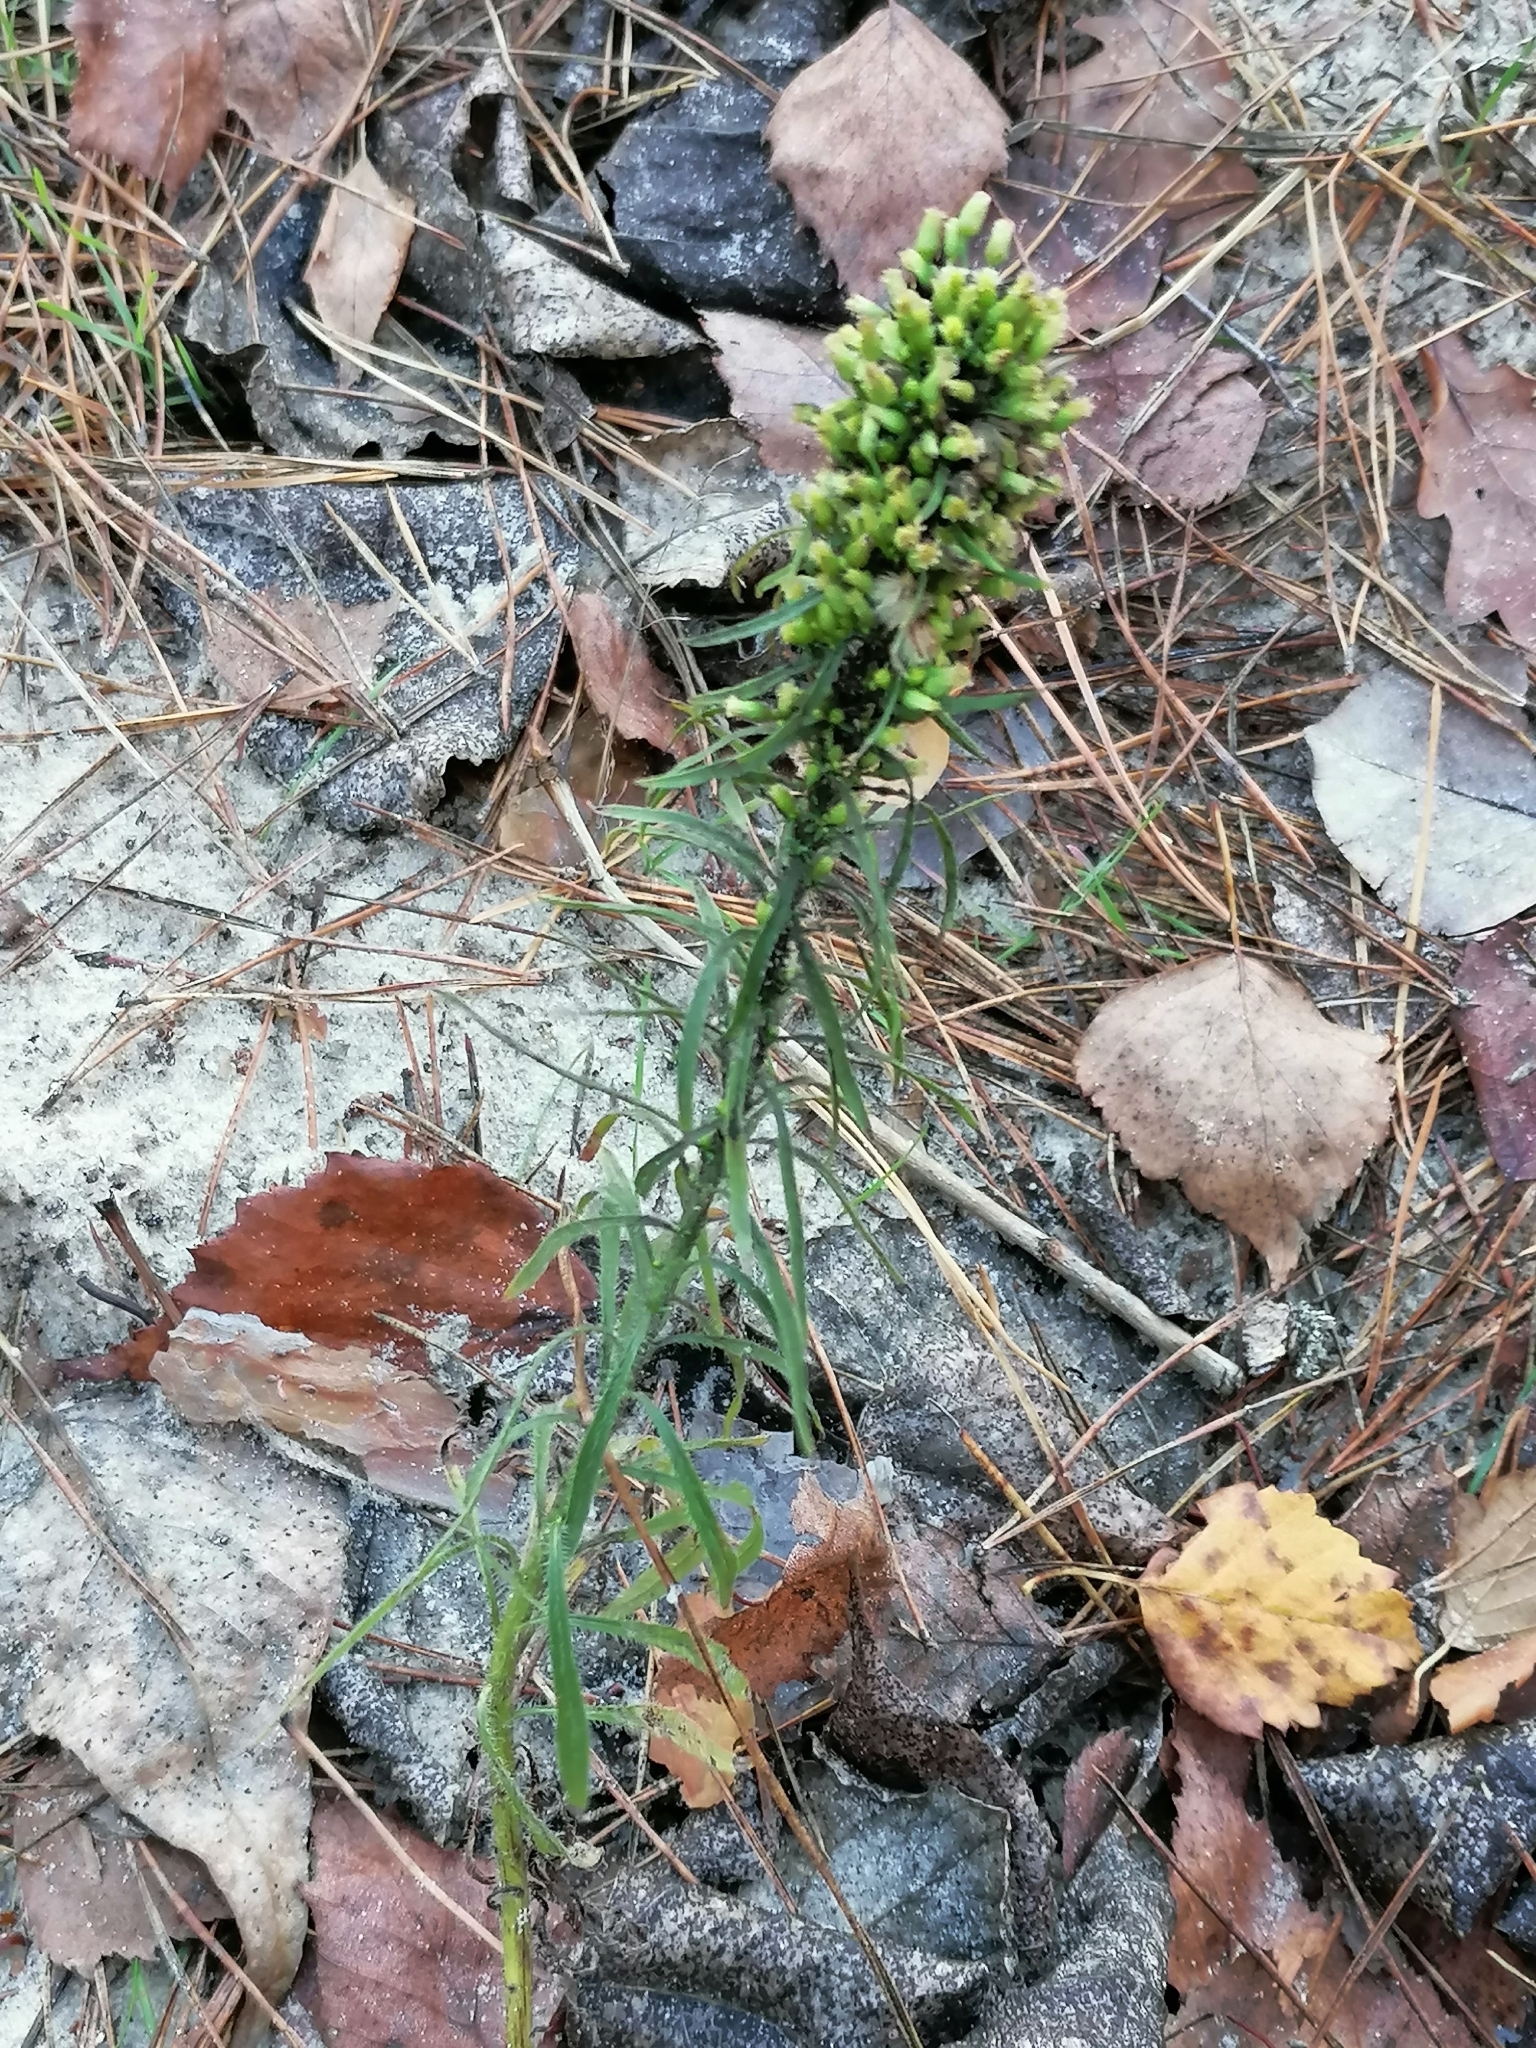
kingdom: Plantae
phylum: Tracheophyta
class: Magnoliopsida
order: Asterales
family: Asteraceae
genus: Erigeron
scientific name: Erigeron canadensis
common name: Canadian fleabane
